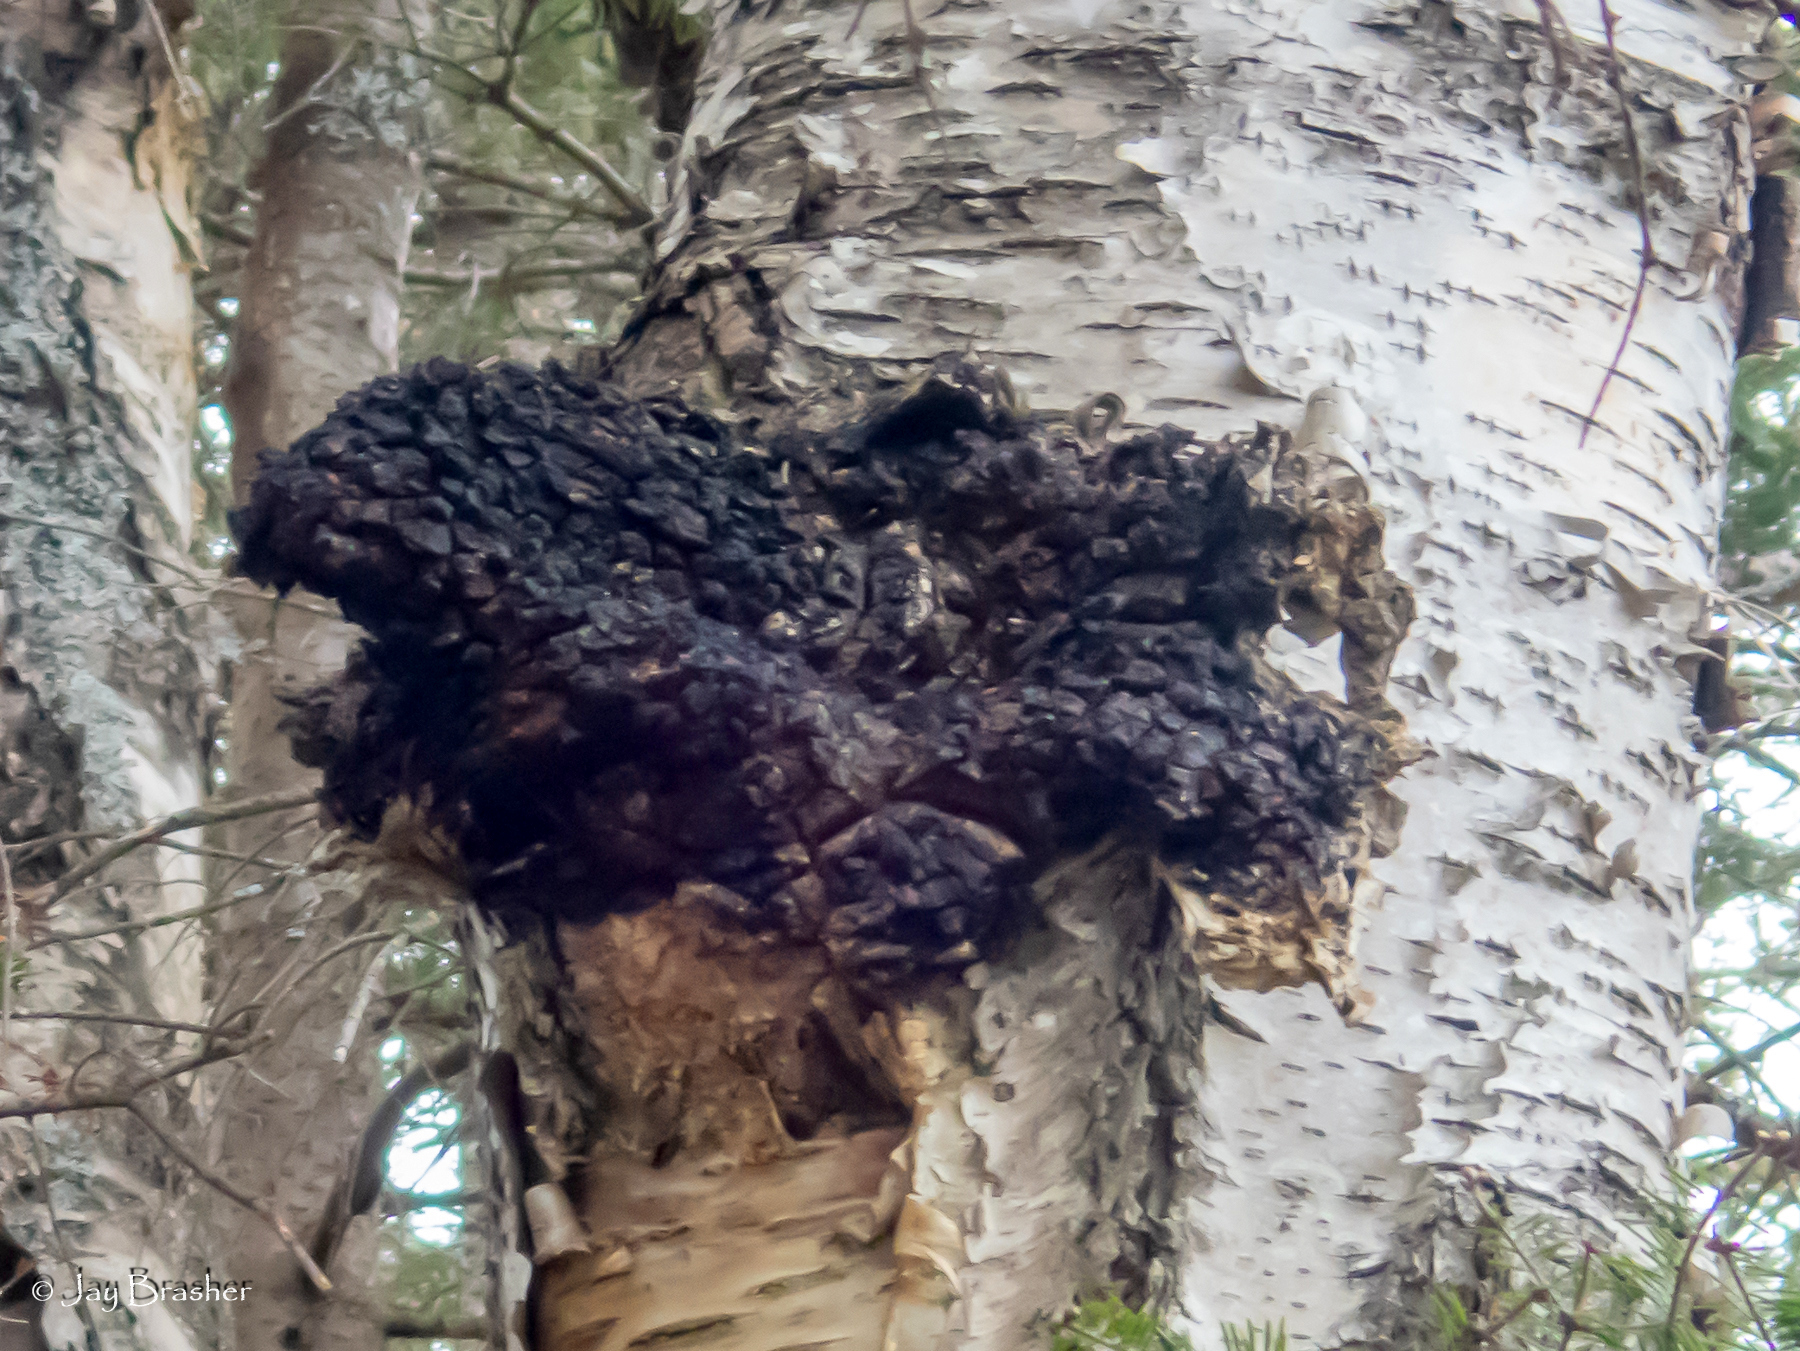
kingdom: Fungi
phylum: Basidiomycota
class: Agaricomycetes
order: Hymenochaetales
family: Hymenochaetaceae
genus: Inonotus
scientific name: Inonotus obliquus
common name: Chaga
